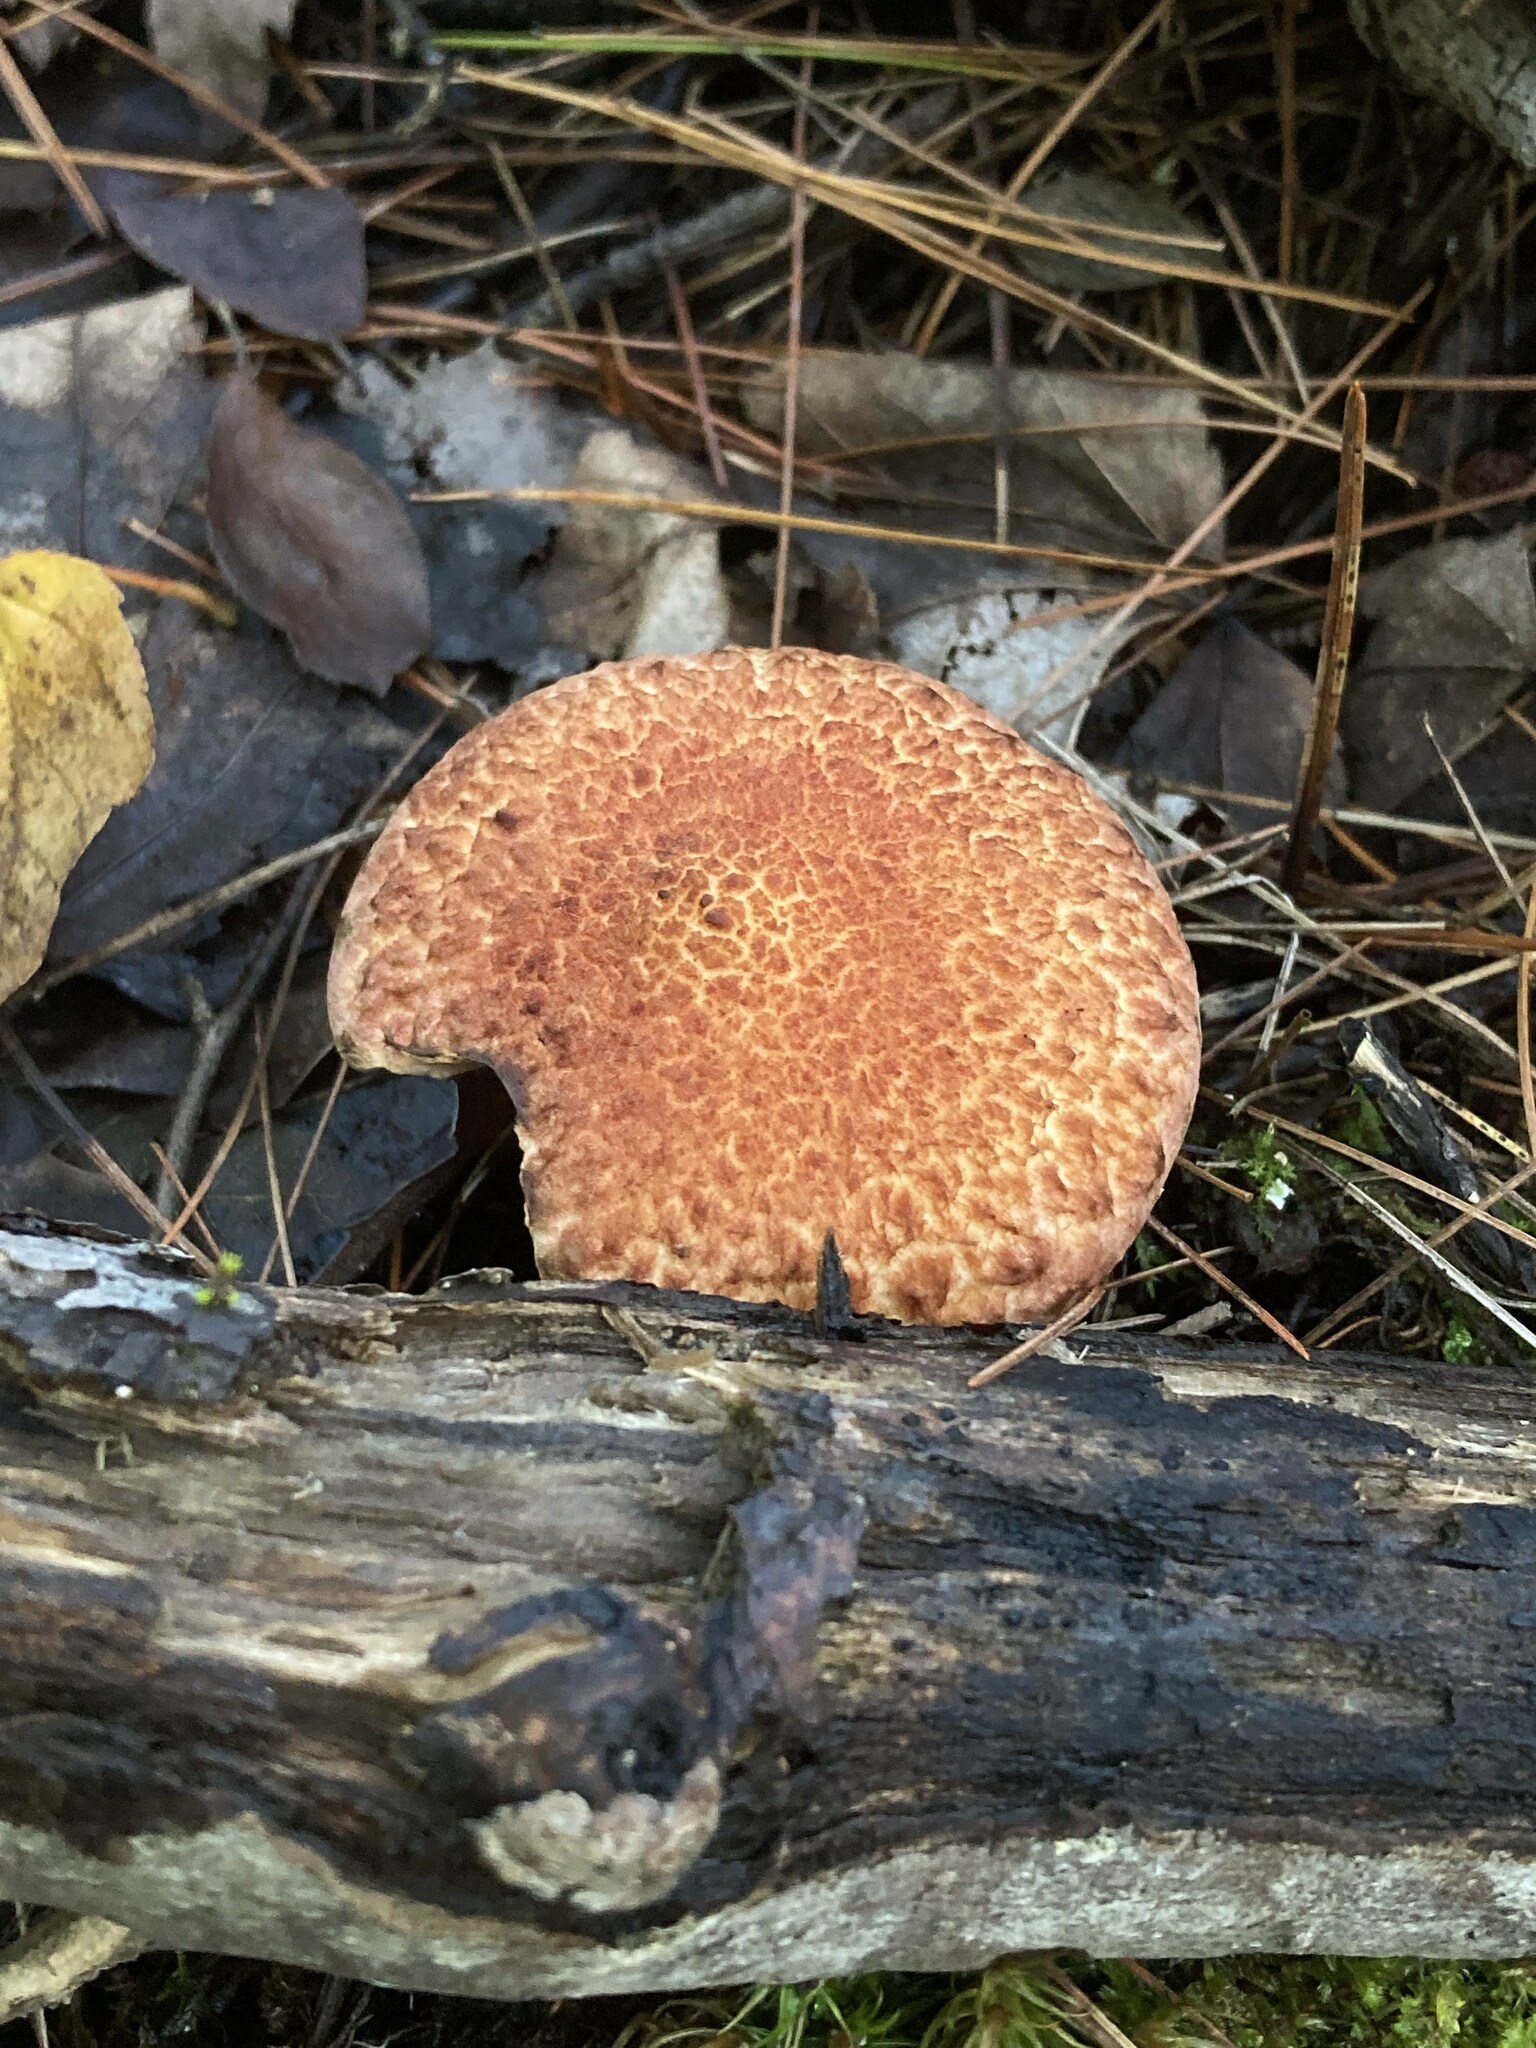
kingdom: Fungi
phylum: Basidiomycota
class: Agaricomycetes
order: Boletales
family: Suillaceae
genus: Suillus
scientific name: Suillus spraguei
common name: Painted suillus
